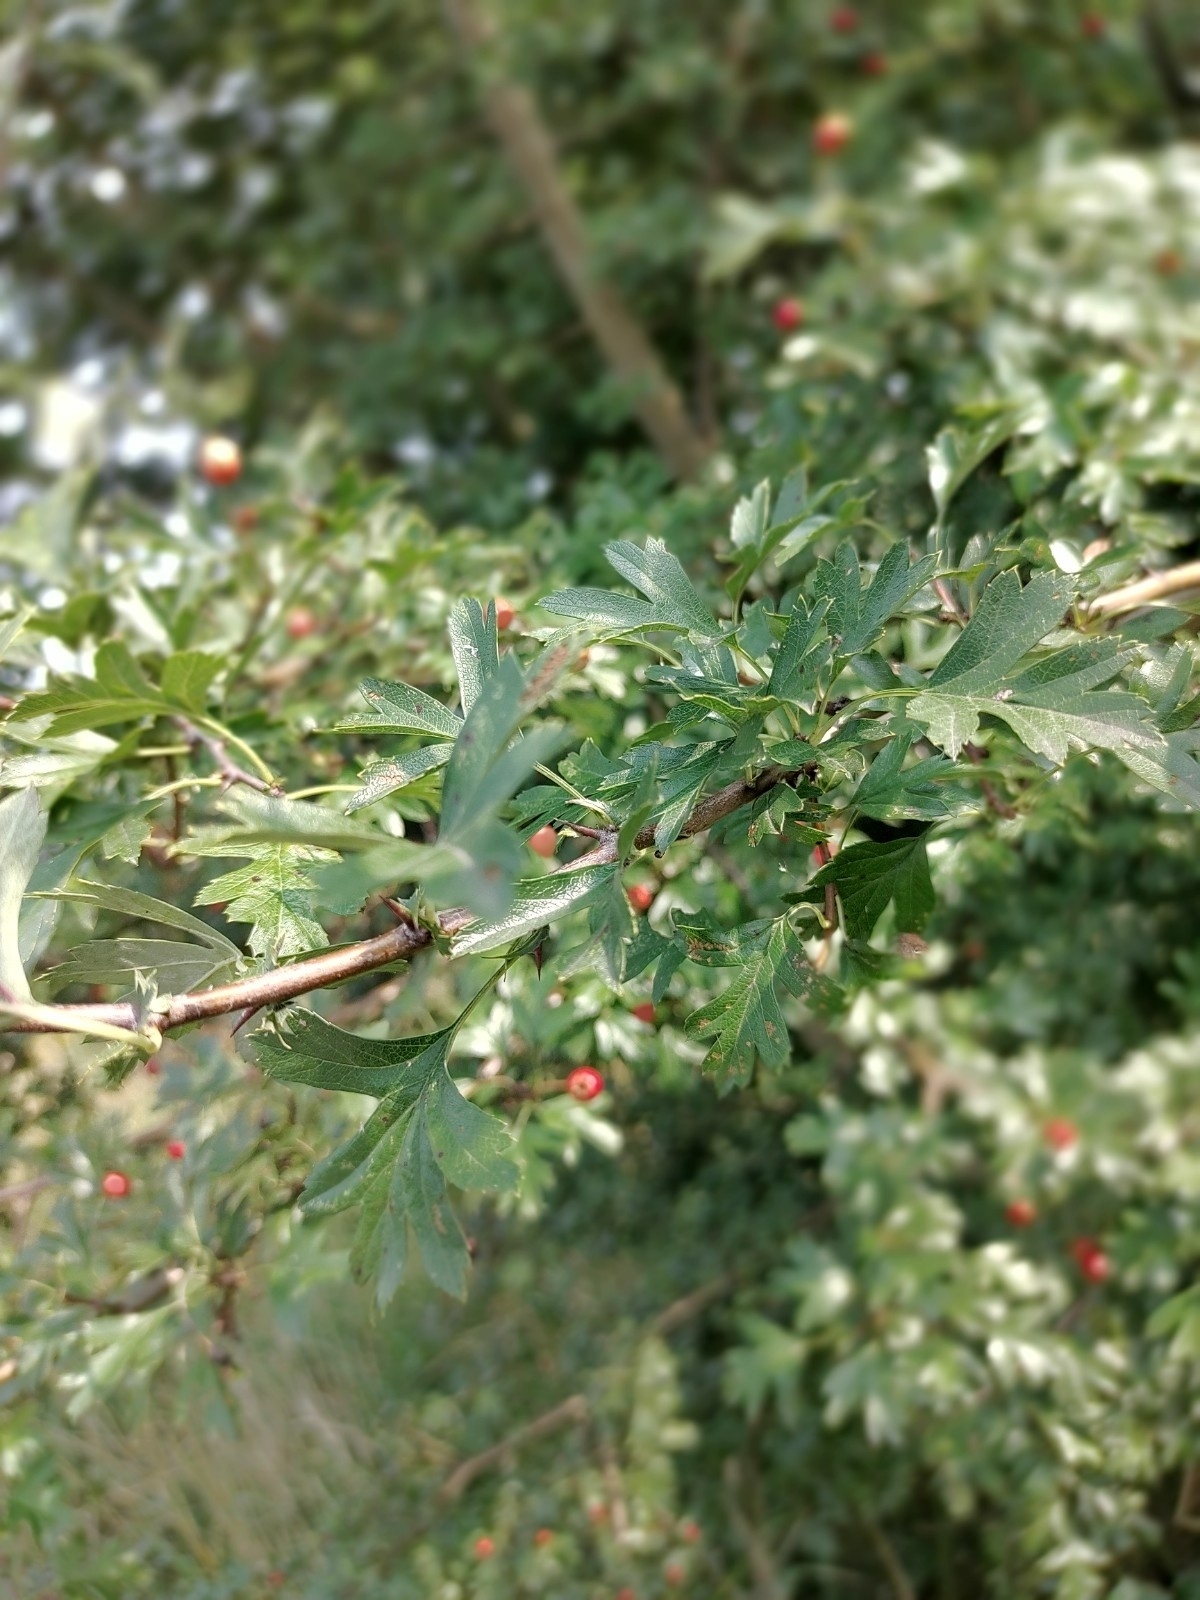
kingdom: Plantae
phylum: Tracheophyta
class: Magnoliopsida
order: Rosales
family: Rosaceae
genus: Crataegus
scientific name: Crataegus monogyna
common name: Hawthorn
